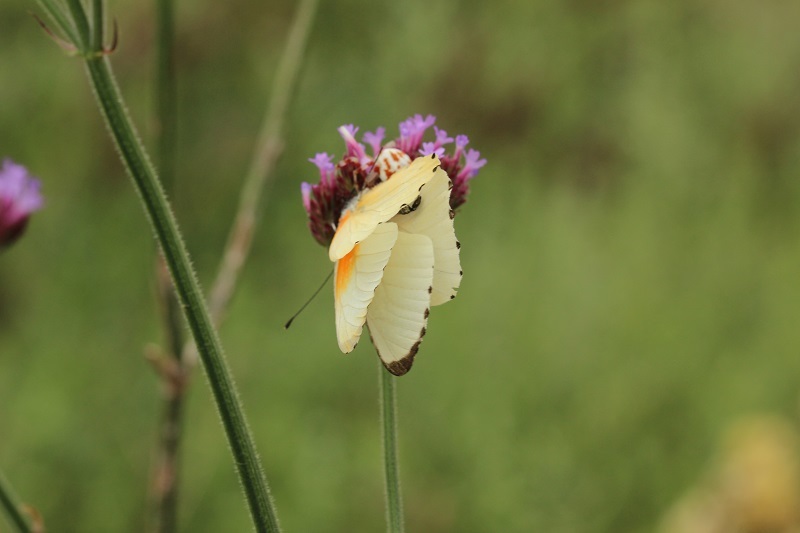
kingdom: Animalia
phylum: Arthropoda
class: Insecta
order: Lepidoptera
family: Pieridae
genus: Mylothris
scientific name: Mylothris agathina
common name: Eastern dotted border
